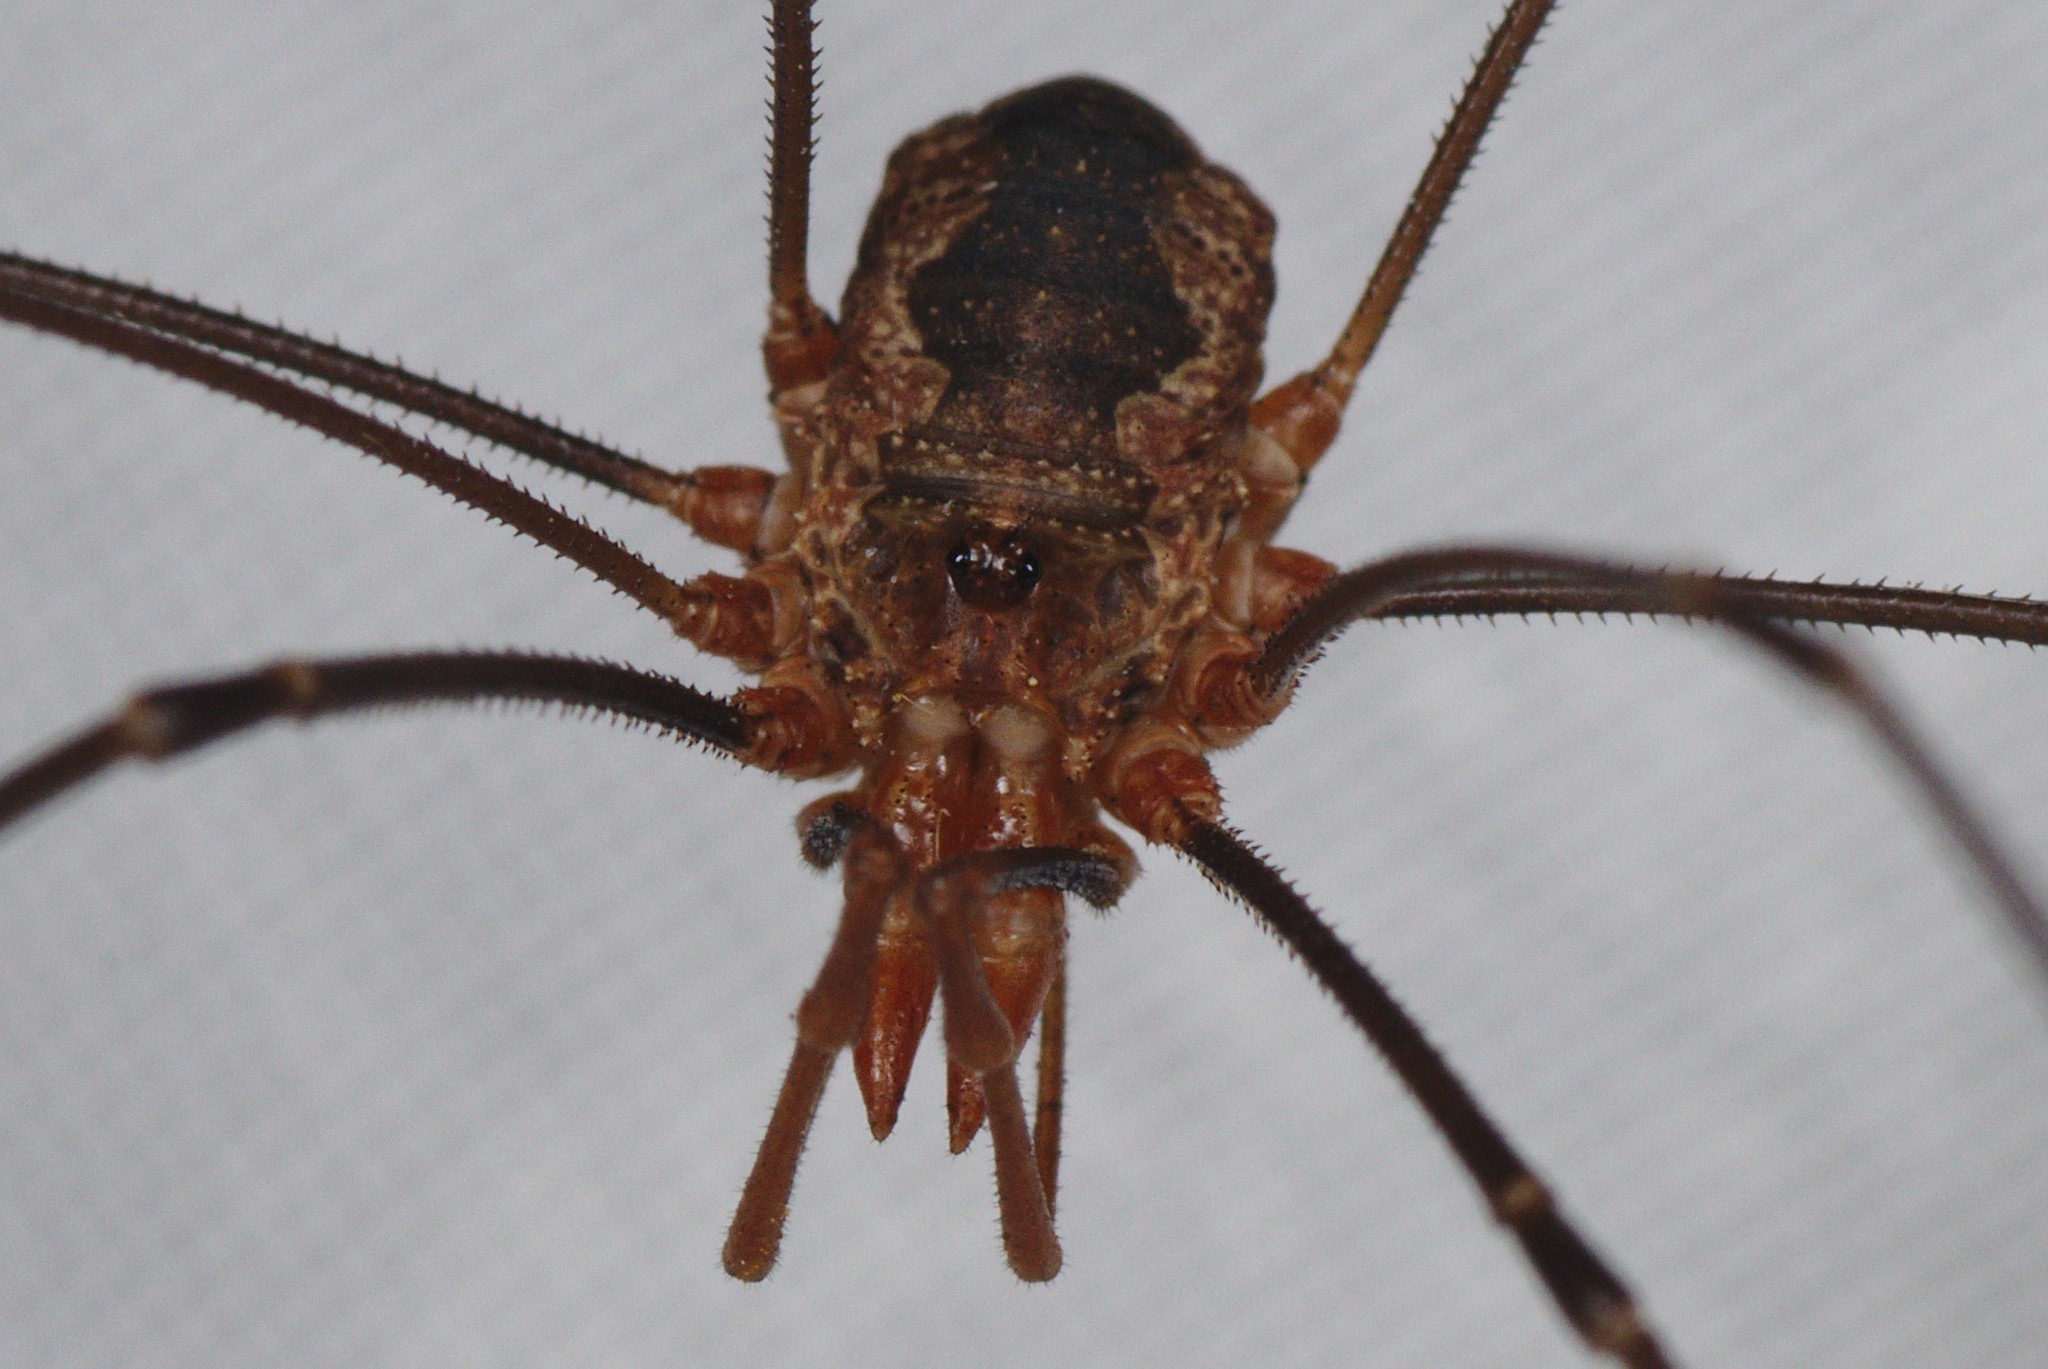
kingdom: Animalia
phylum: Arthropoda
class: Arachnida
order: Opiliones
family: Phalangiidae
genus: Phalangium
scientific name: Phalangium opilio
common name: Daddy longleg
